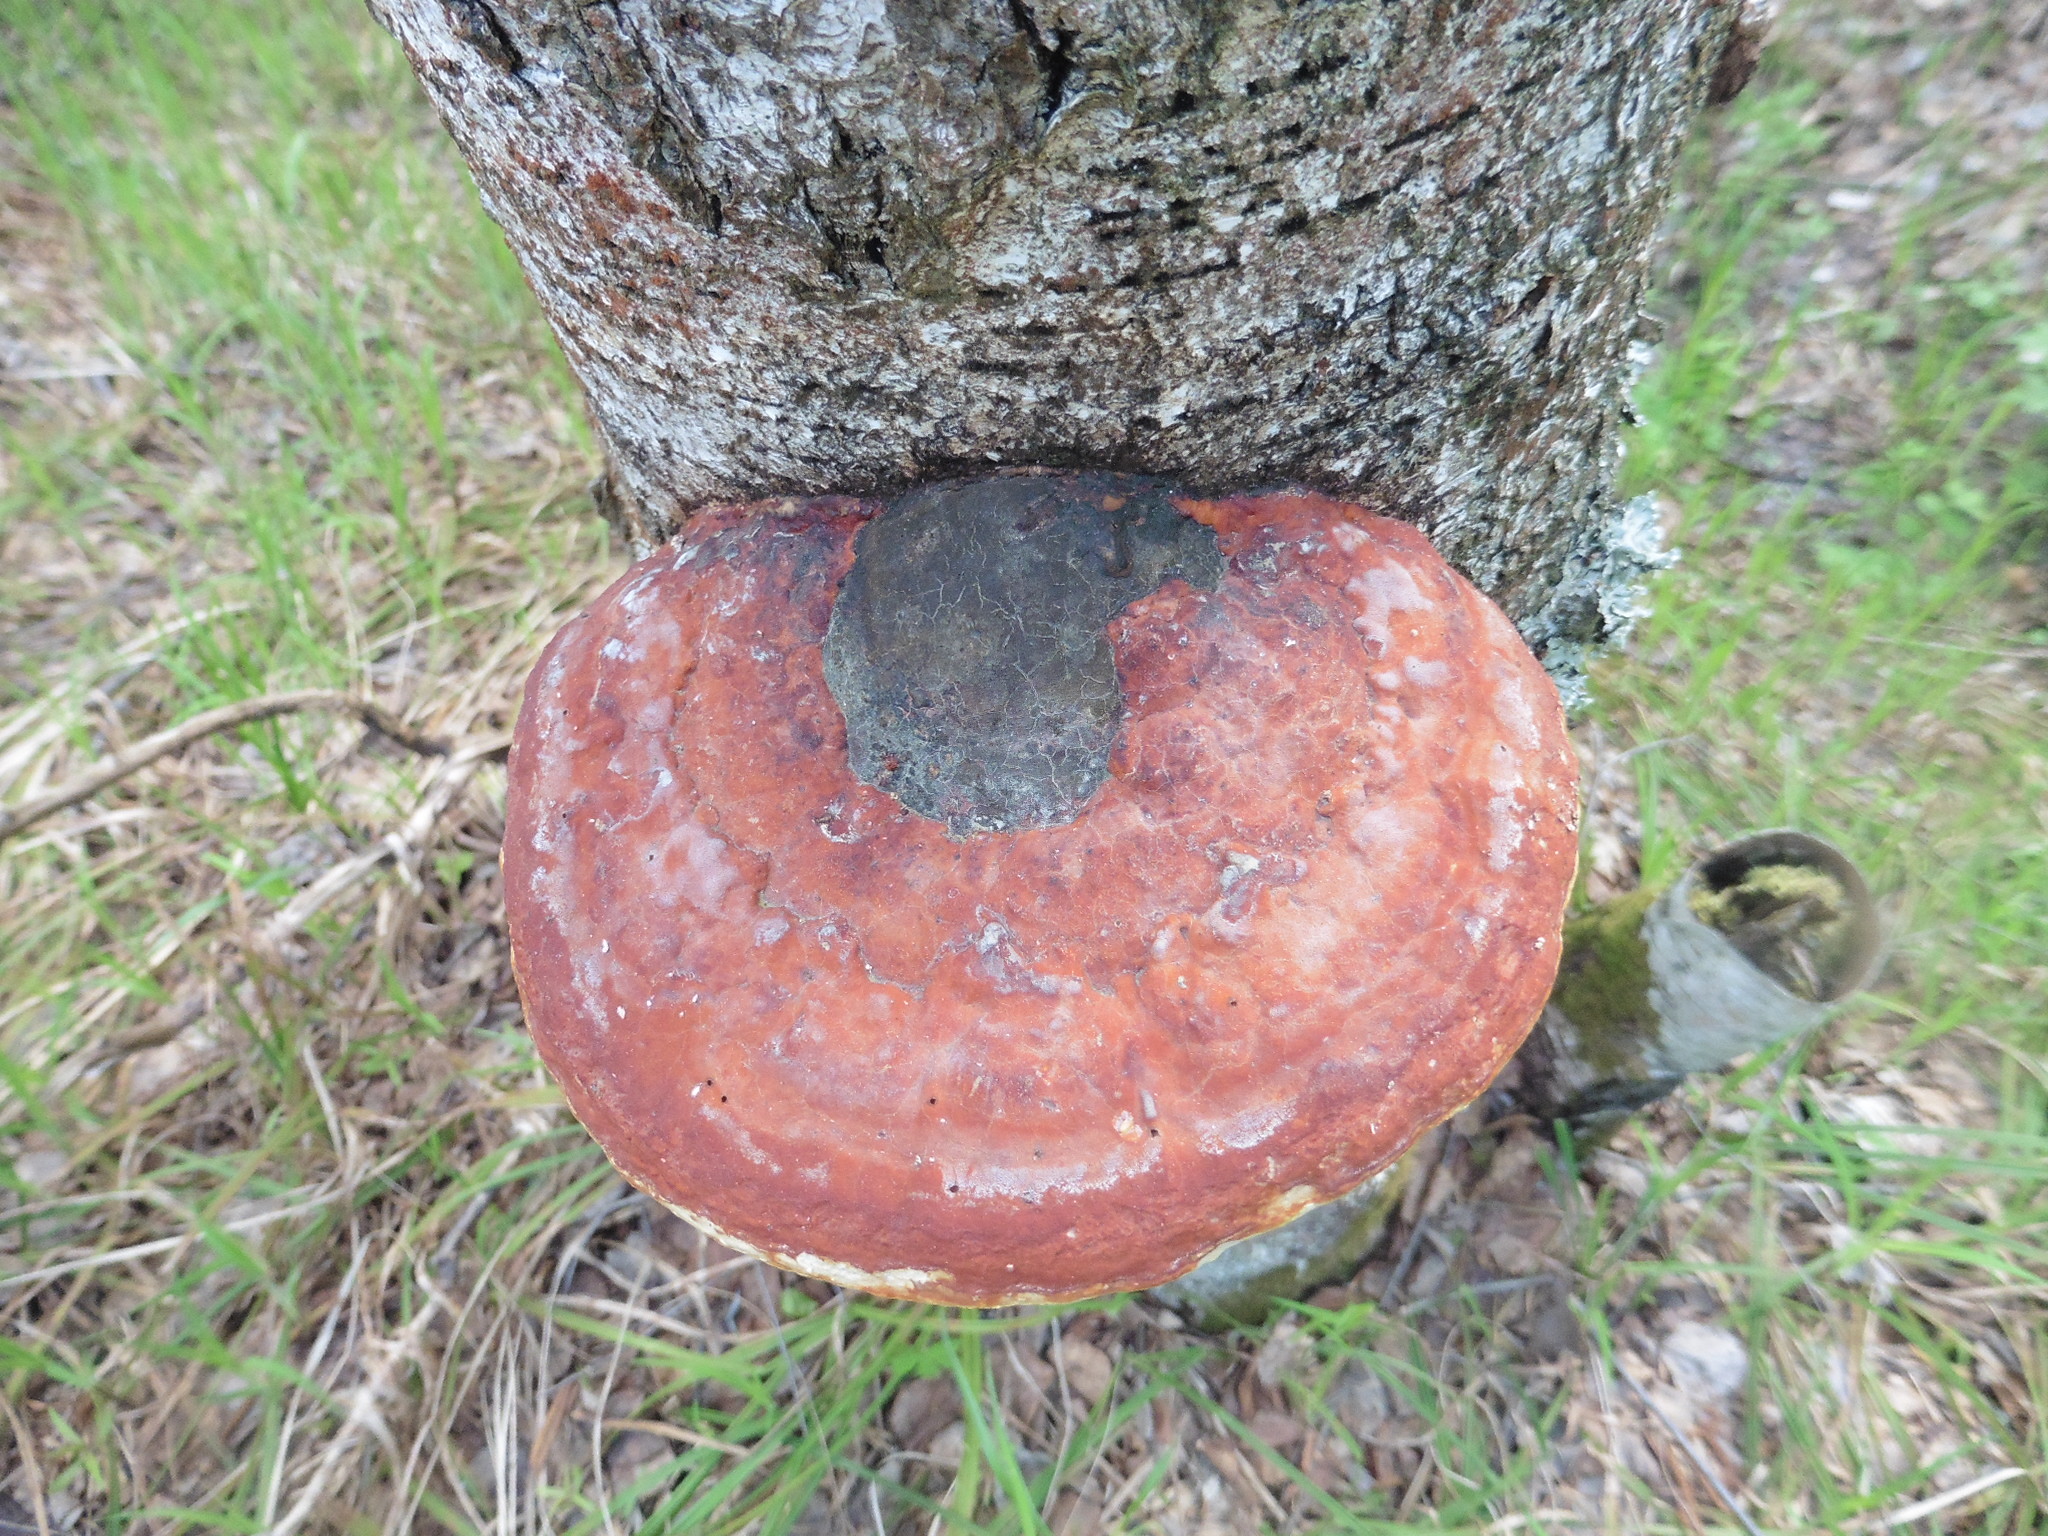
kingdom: Fungi
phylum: Basidiomycota
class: Agaricomycetes
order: Polyporales
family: Fomitopsidaceae
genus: Fomitopsis
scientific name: Fomitopsis pinicola
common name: Red-belted bracket
